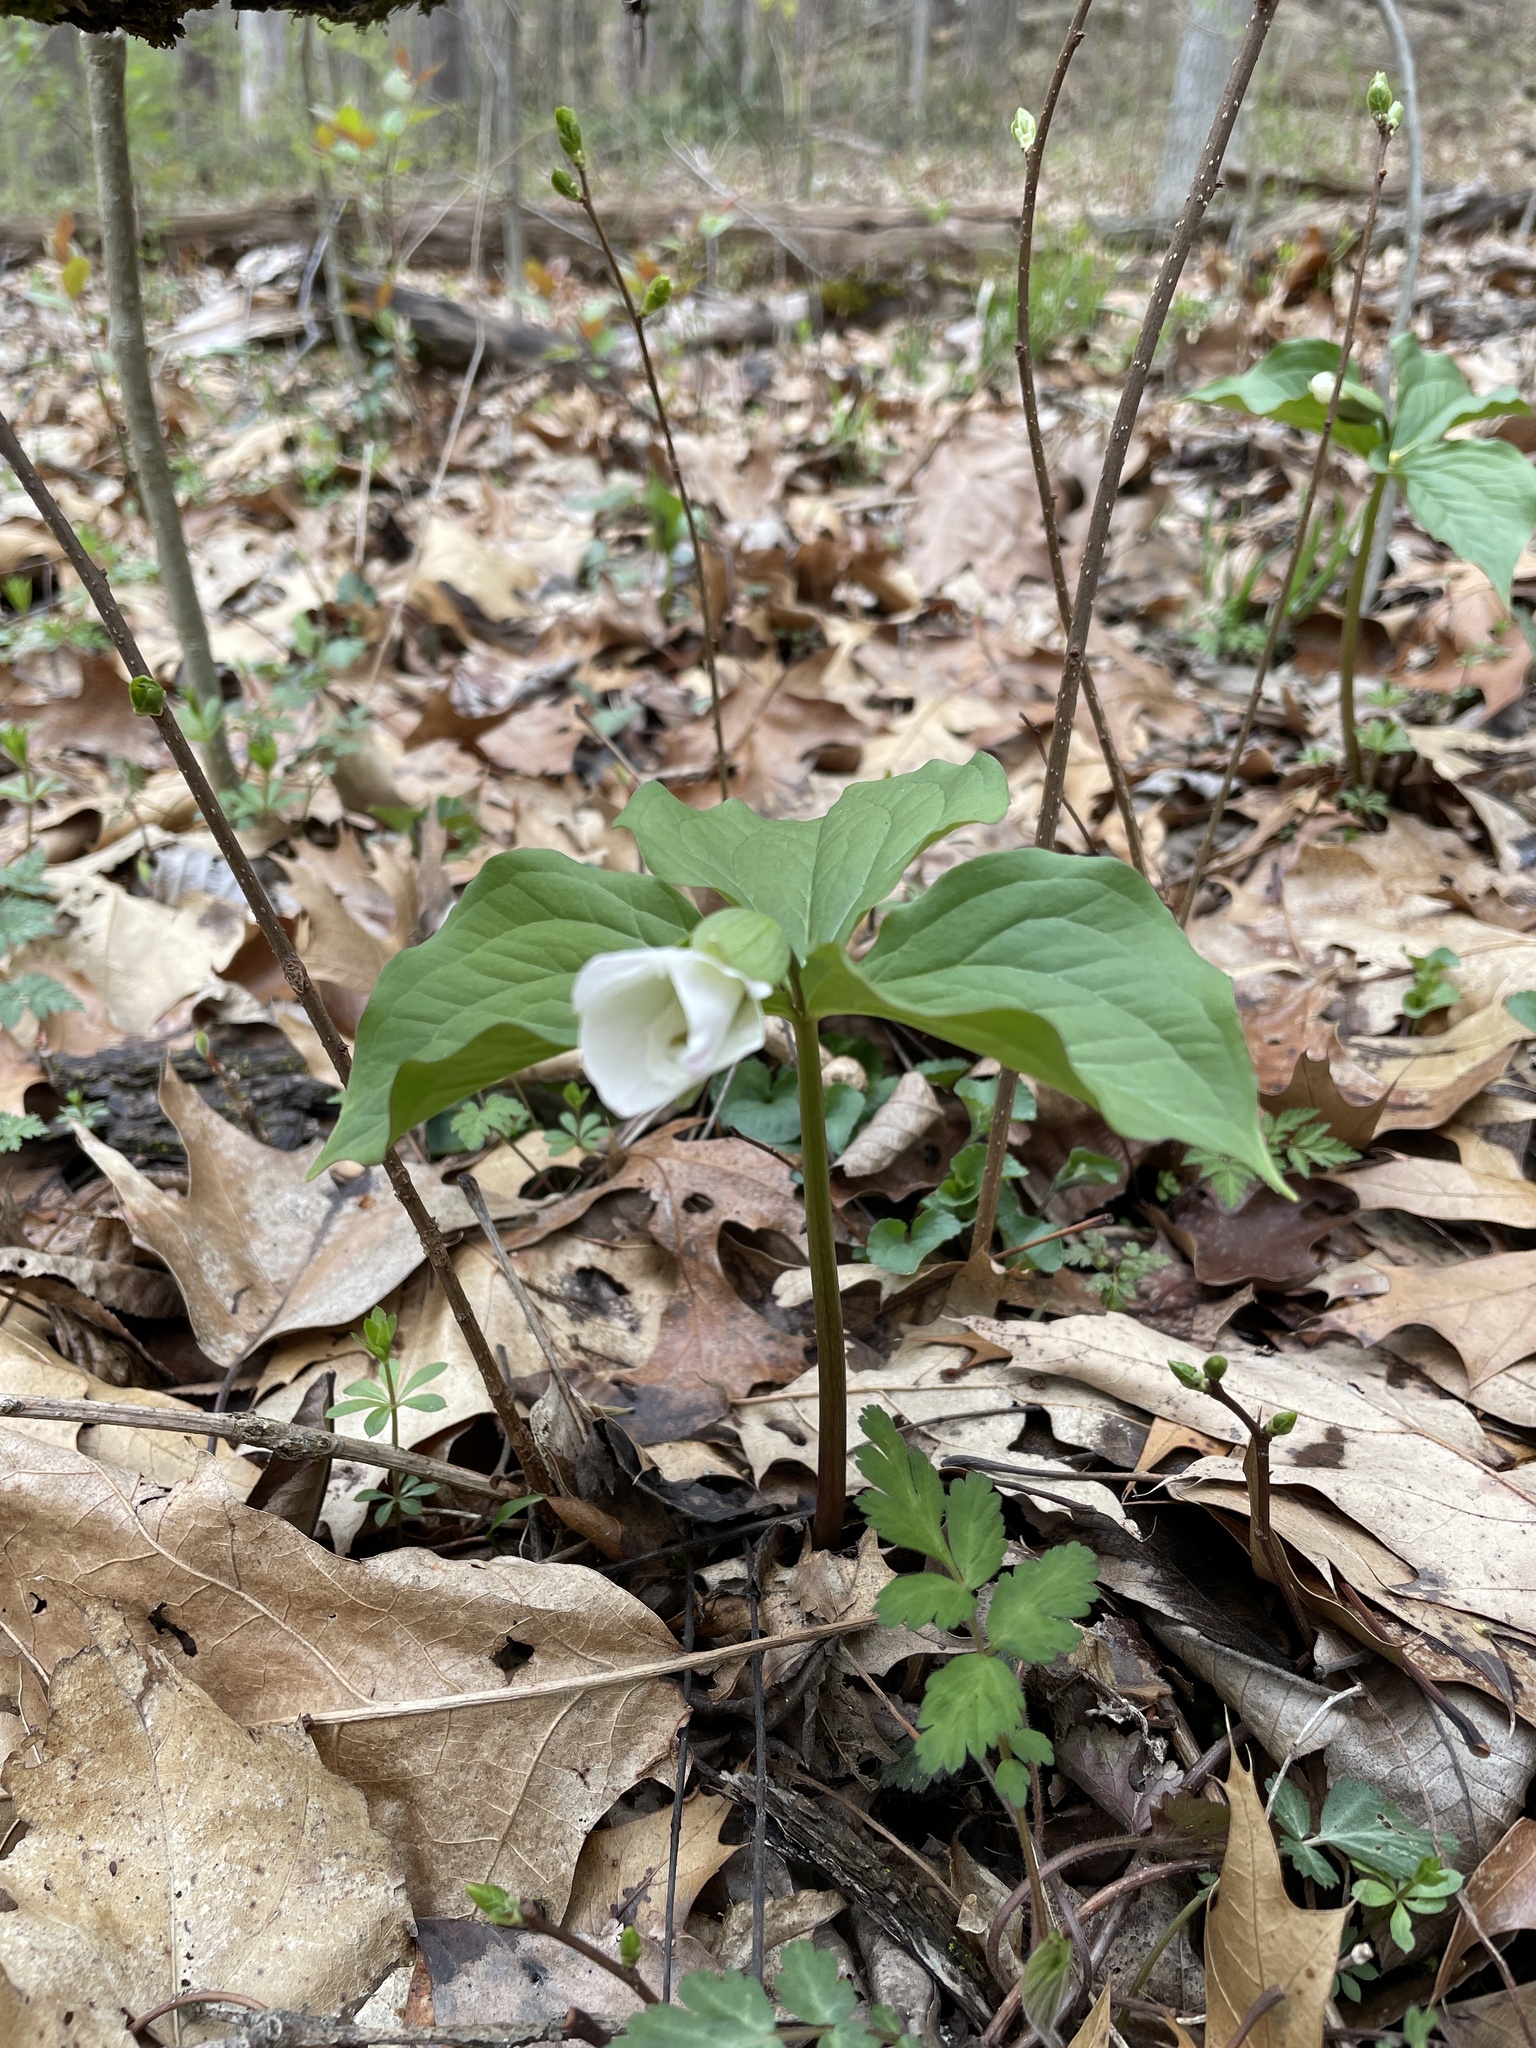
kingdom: Plantae
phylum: Tracheophyta
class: Liliopsida
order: Liliales
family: Melanthiaceae
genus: Trillium
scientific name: Trillium grandiflorum
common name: Great white trillium
